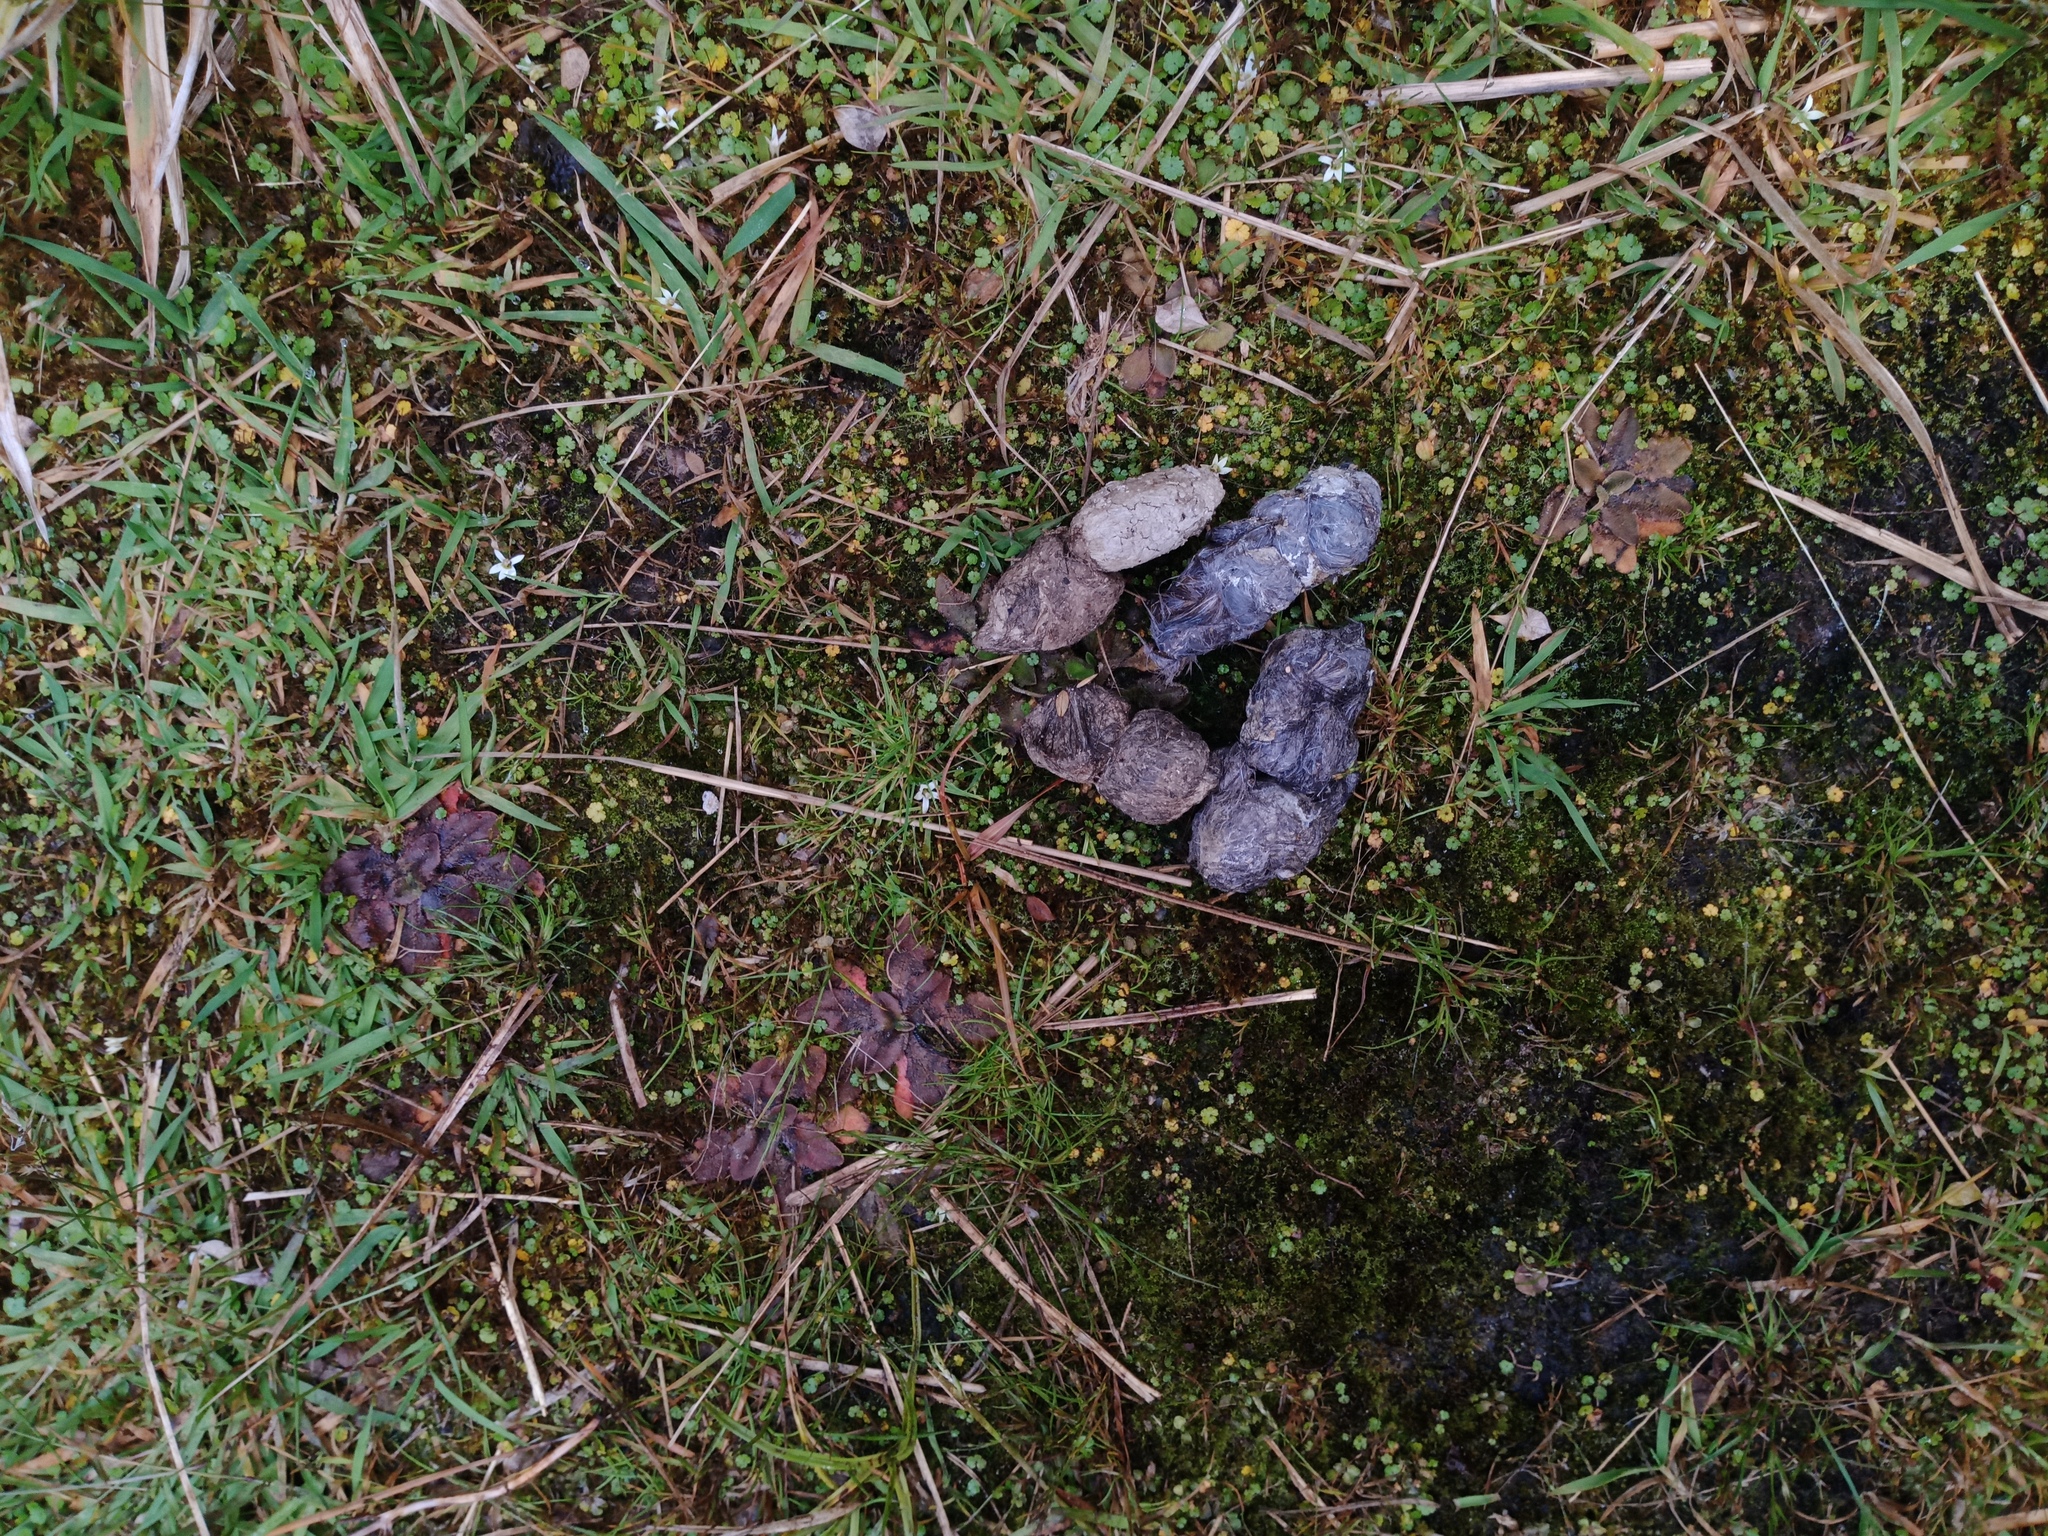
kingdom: Animalia
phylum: Chordata
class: Mammalia
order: Carnivora
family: Felidae
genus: Felis
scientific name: Felis catus
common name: Domestic cat
